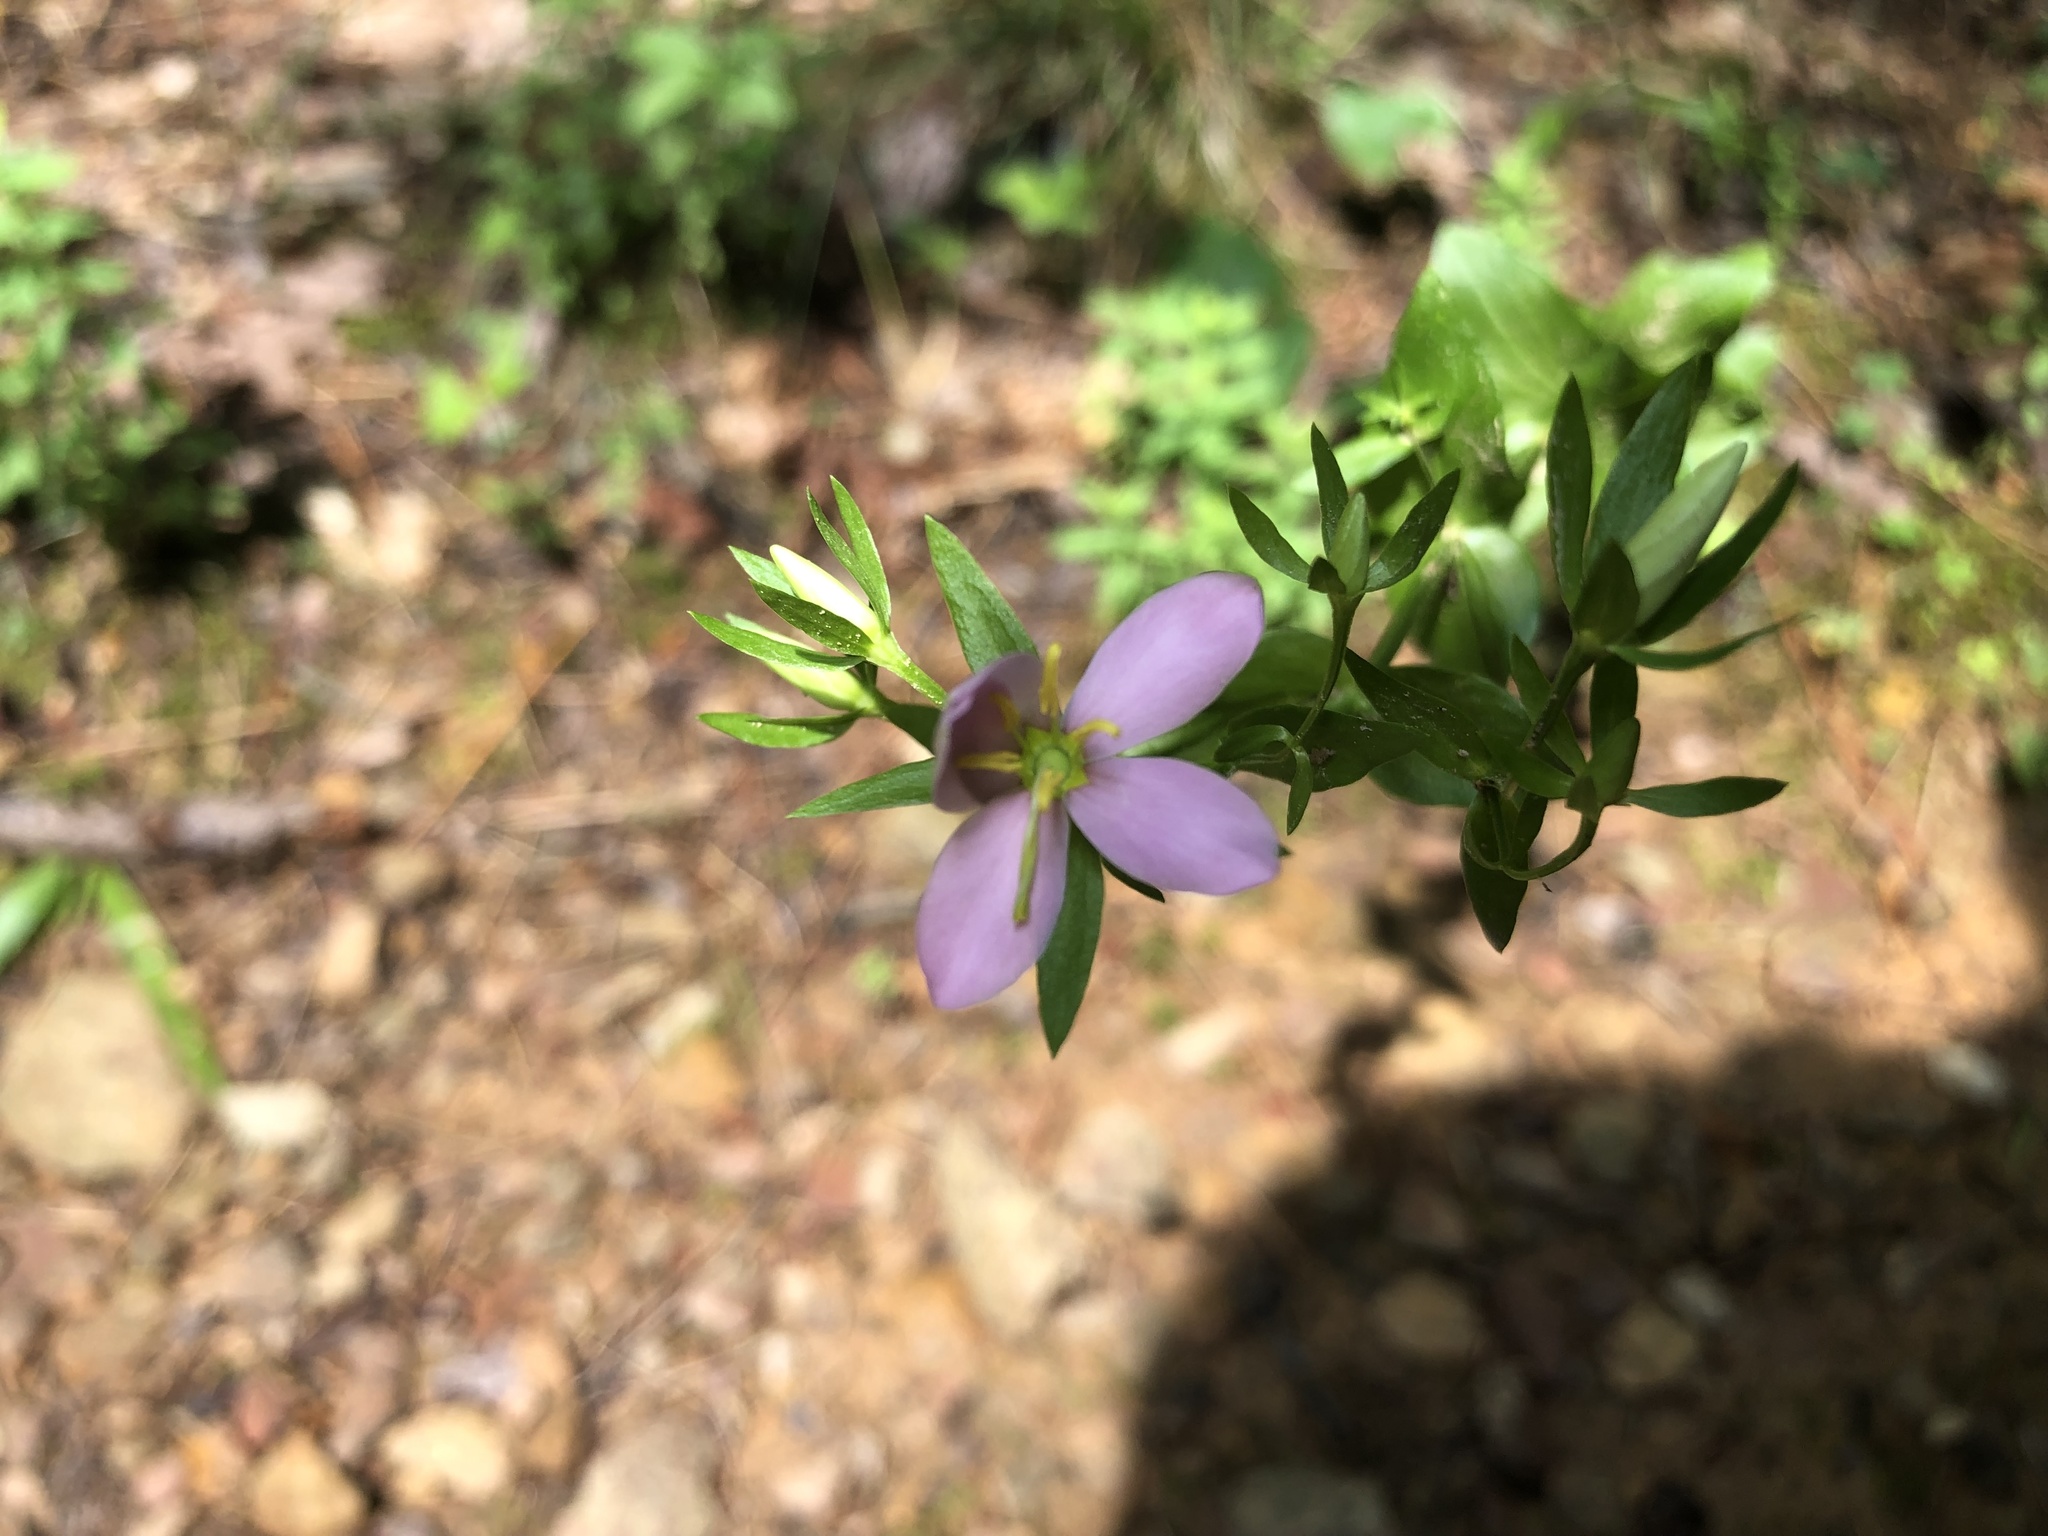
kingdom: Plantae
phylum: Tracheophyta
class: Magnoliopsida
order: Gentianales
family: Gentianaceae
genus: Sabatia
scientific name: Sabatia angularis
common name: Rose-pink
